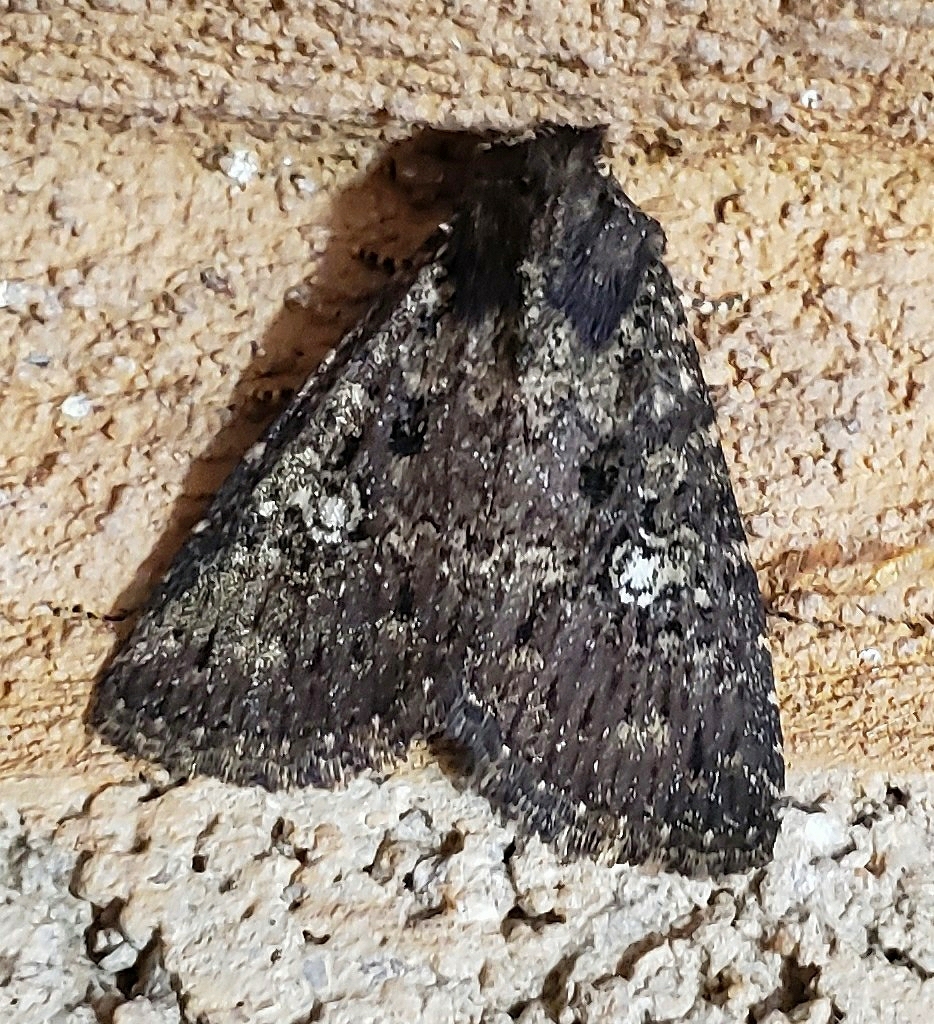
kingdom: Animalia
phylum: Arthropoda
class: Insecta
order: Lepidoptera
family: Noctuidae
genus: Condica
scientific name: Condica vecors
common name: Dusky groundling
